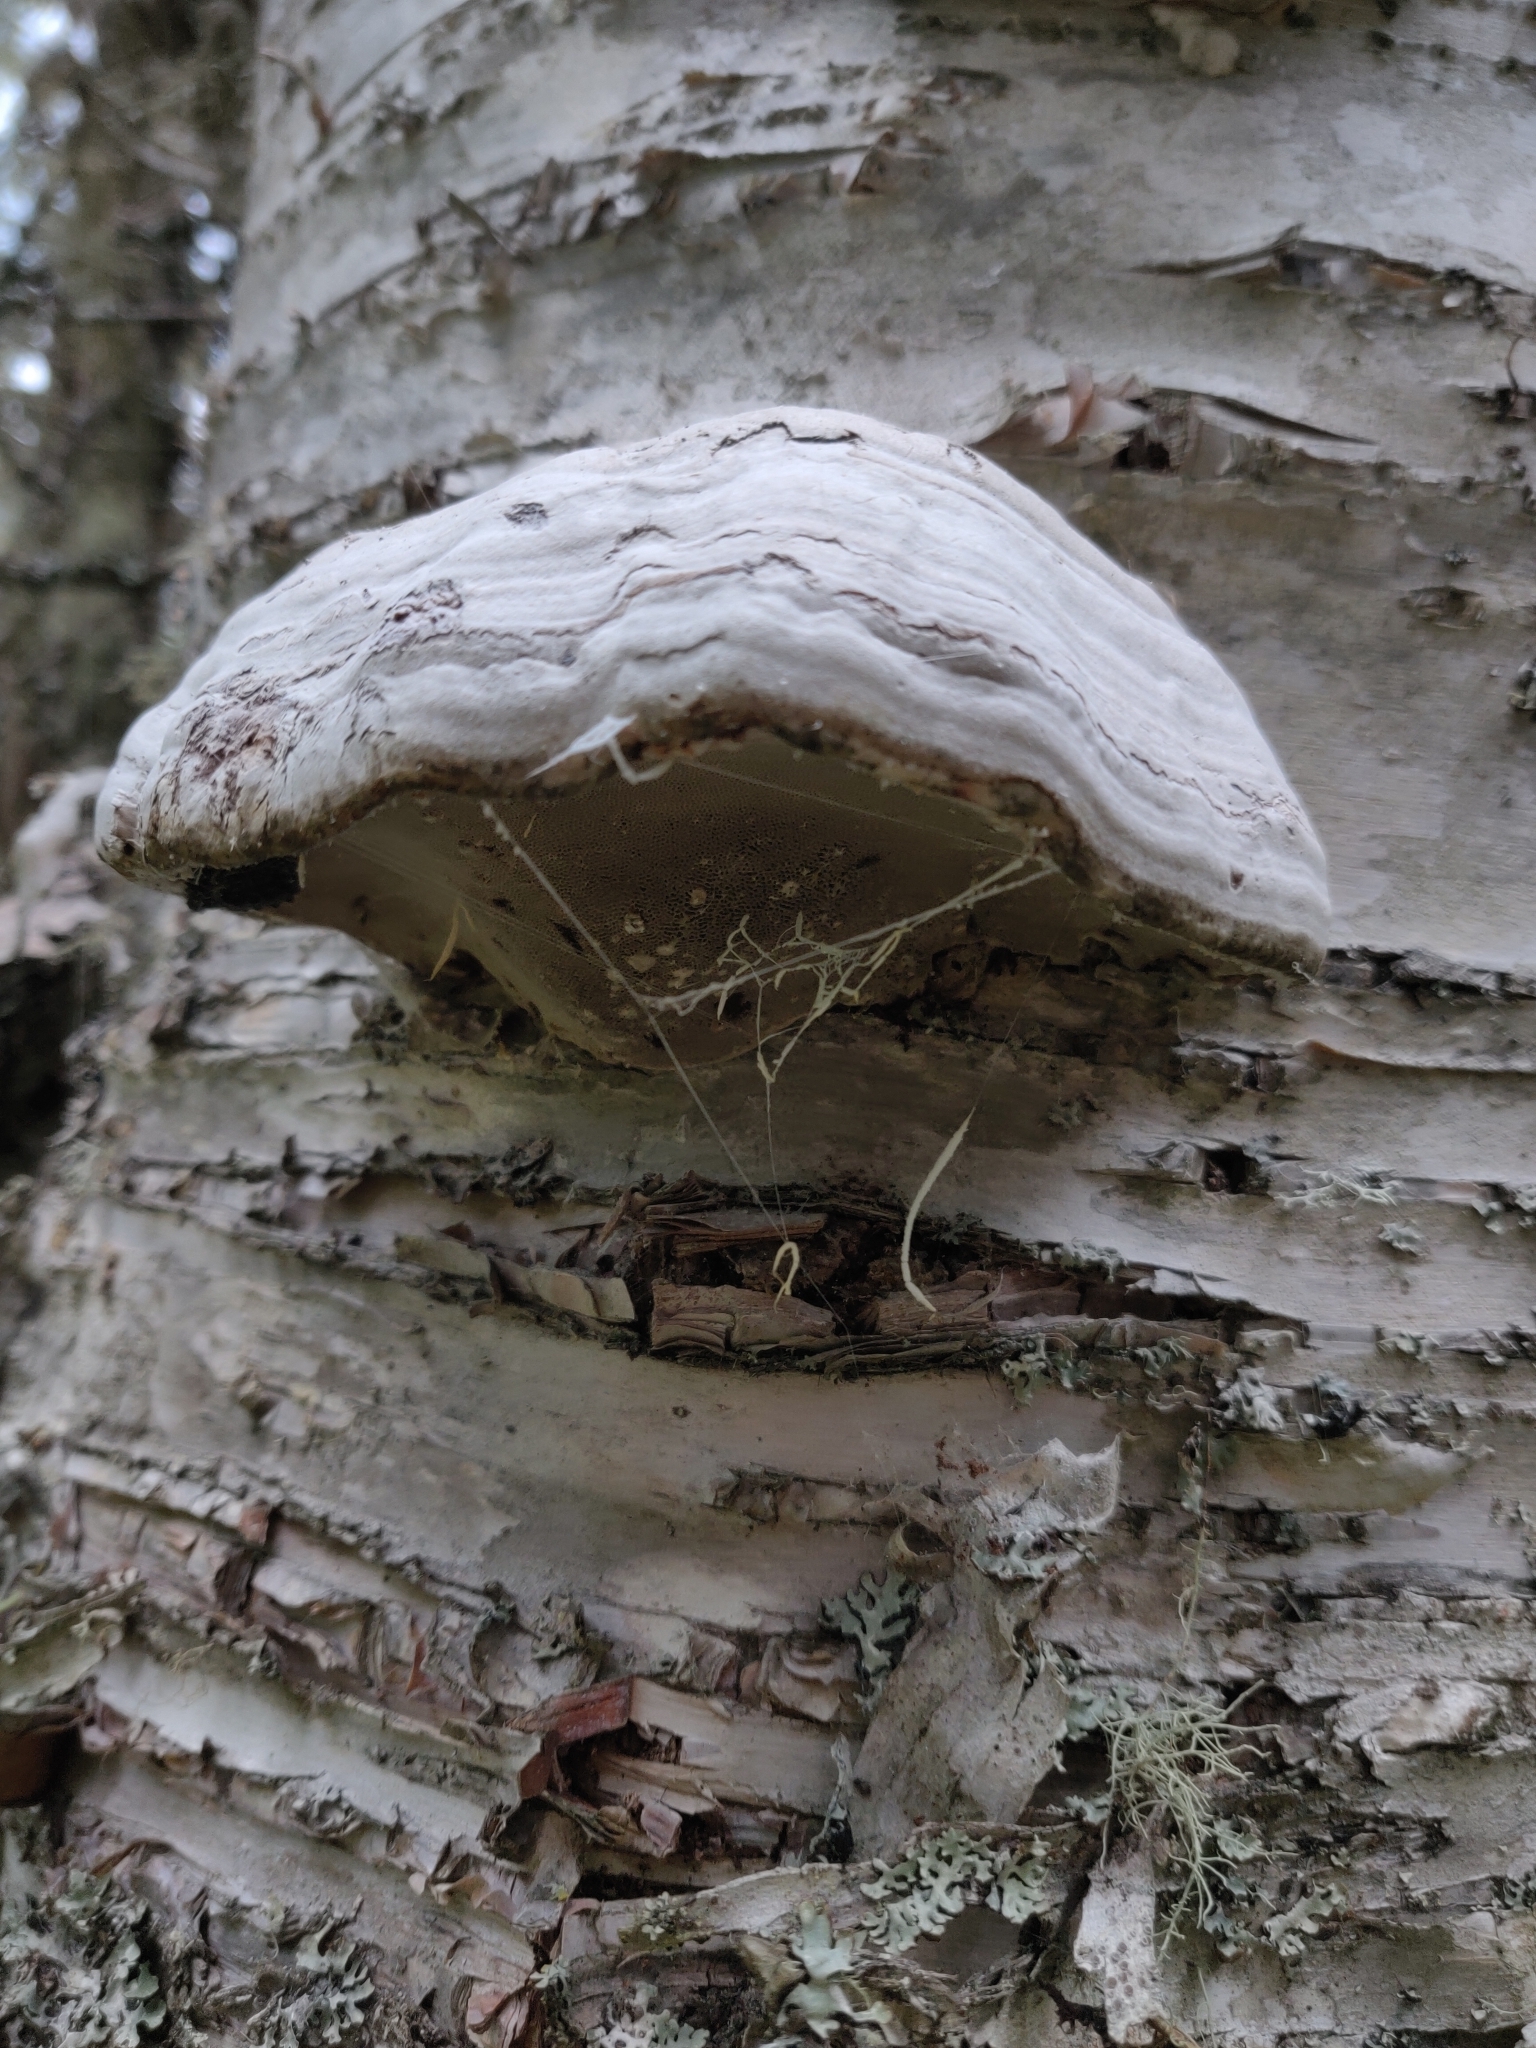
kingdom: Fungi
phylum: Basidiomycota
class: Agaricomycetes
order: Polyporales
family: Polyporaceae
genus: Fomes
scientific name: Fomes fomentarius
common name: Hoof fungus
